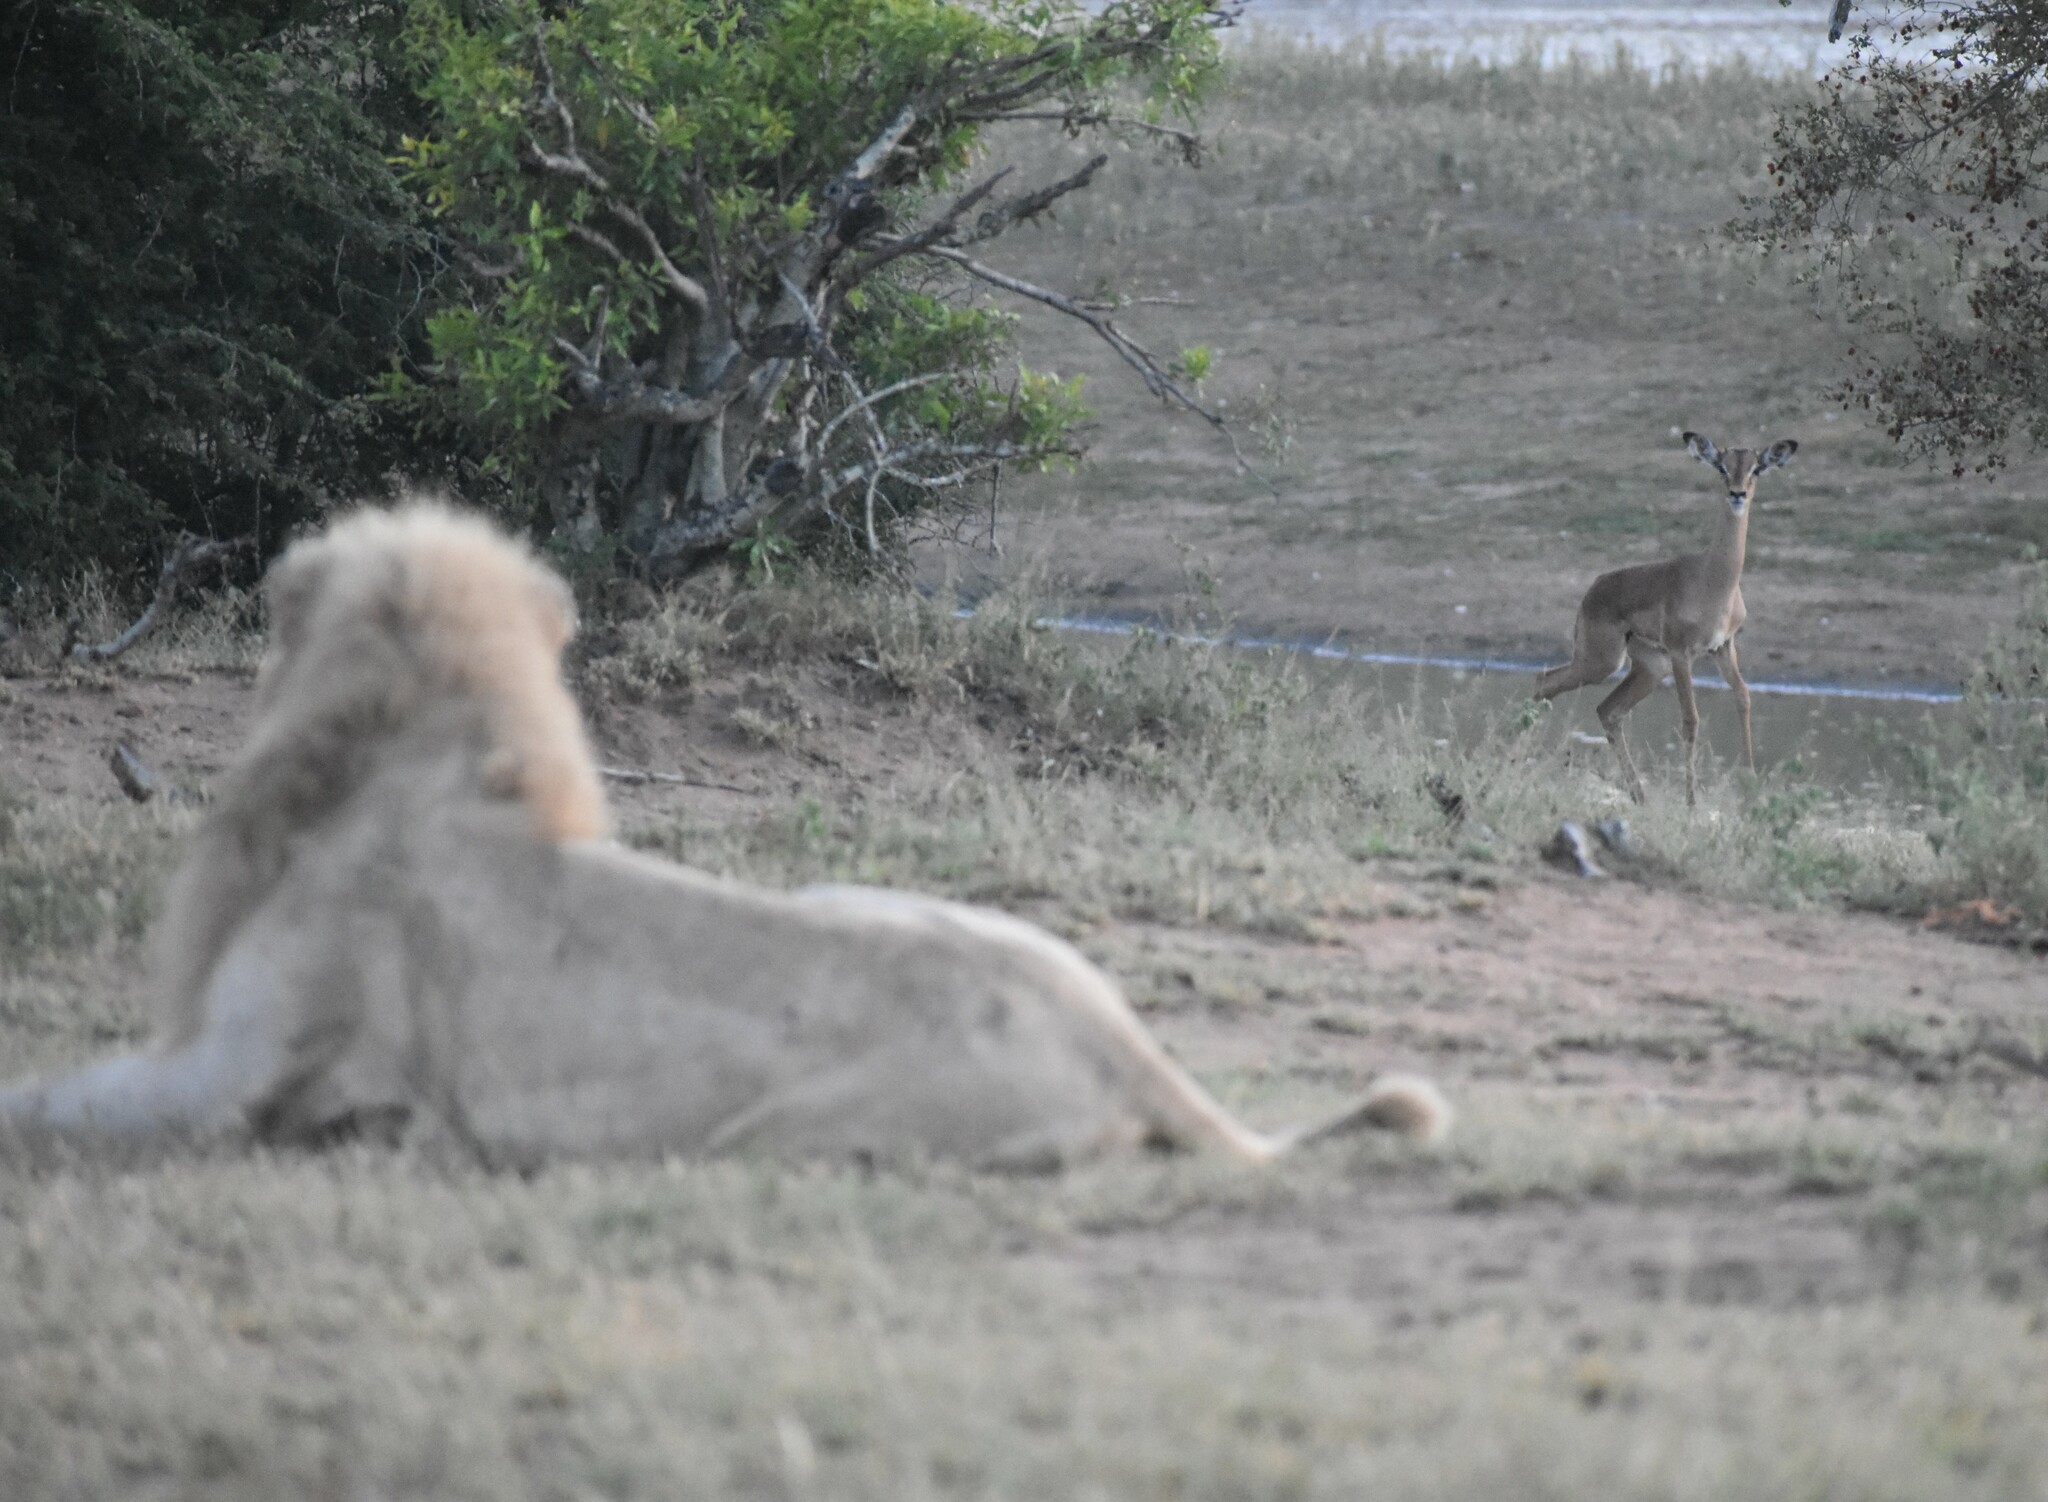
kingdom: Animalia
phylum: Chordata
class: Mammalia
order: Artiodactyla
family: Bovidae
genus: Aepyceros
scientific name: Aepyceros melampus
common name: Impala
